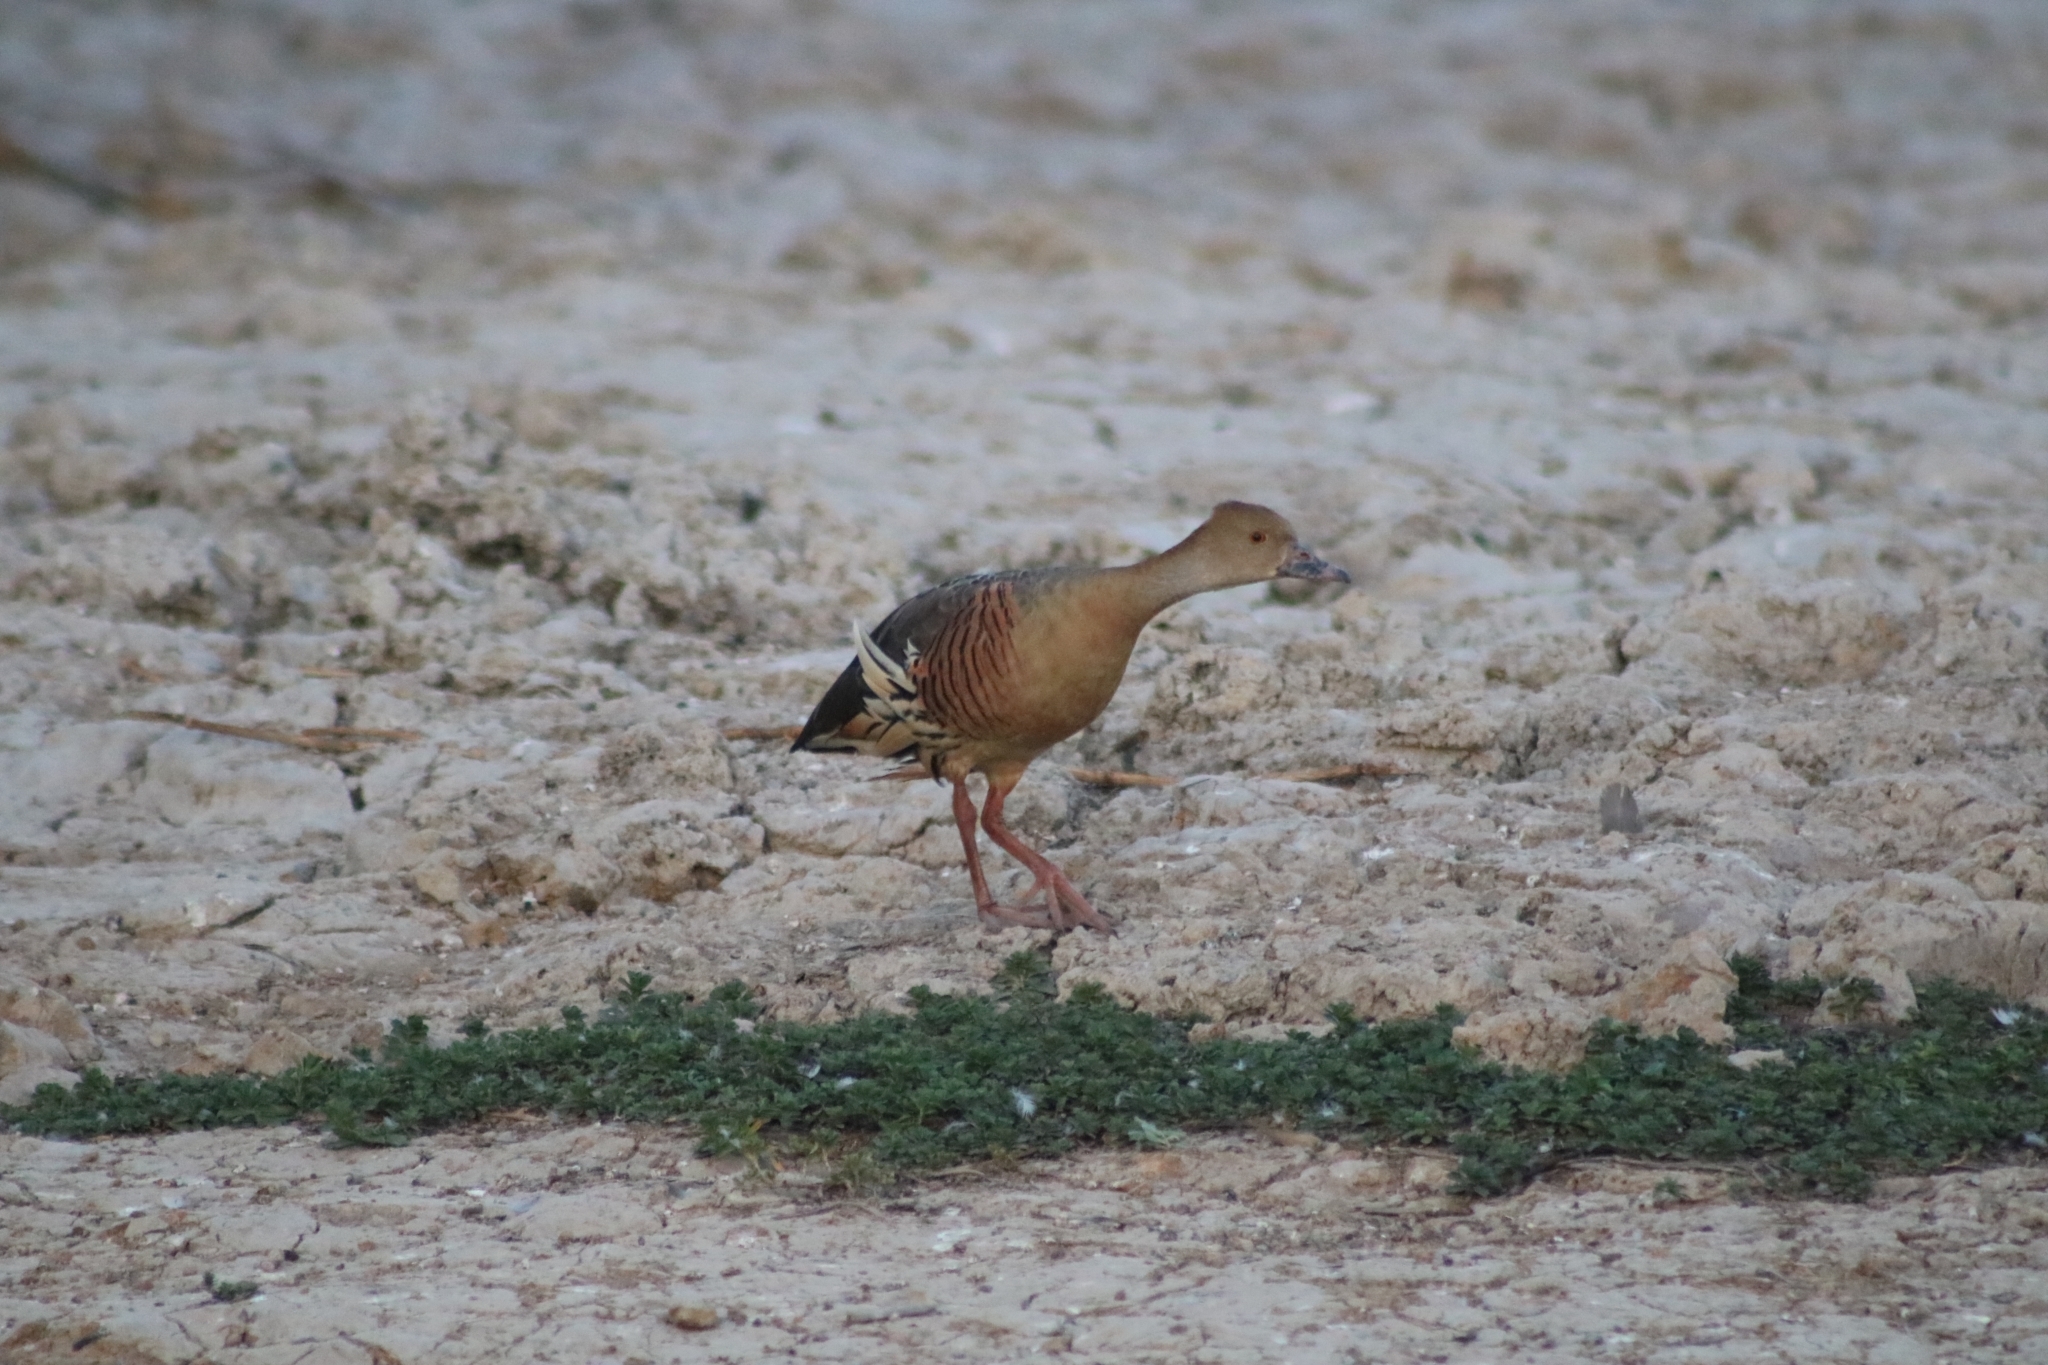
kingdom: Animalia
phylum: Chordata
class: Aves
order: Anseriformes
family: Anatidae
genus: Dendrocygna
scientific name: Dendrocygna eytoni
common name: Plumed whistling-duck
